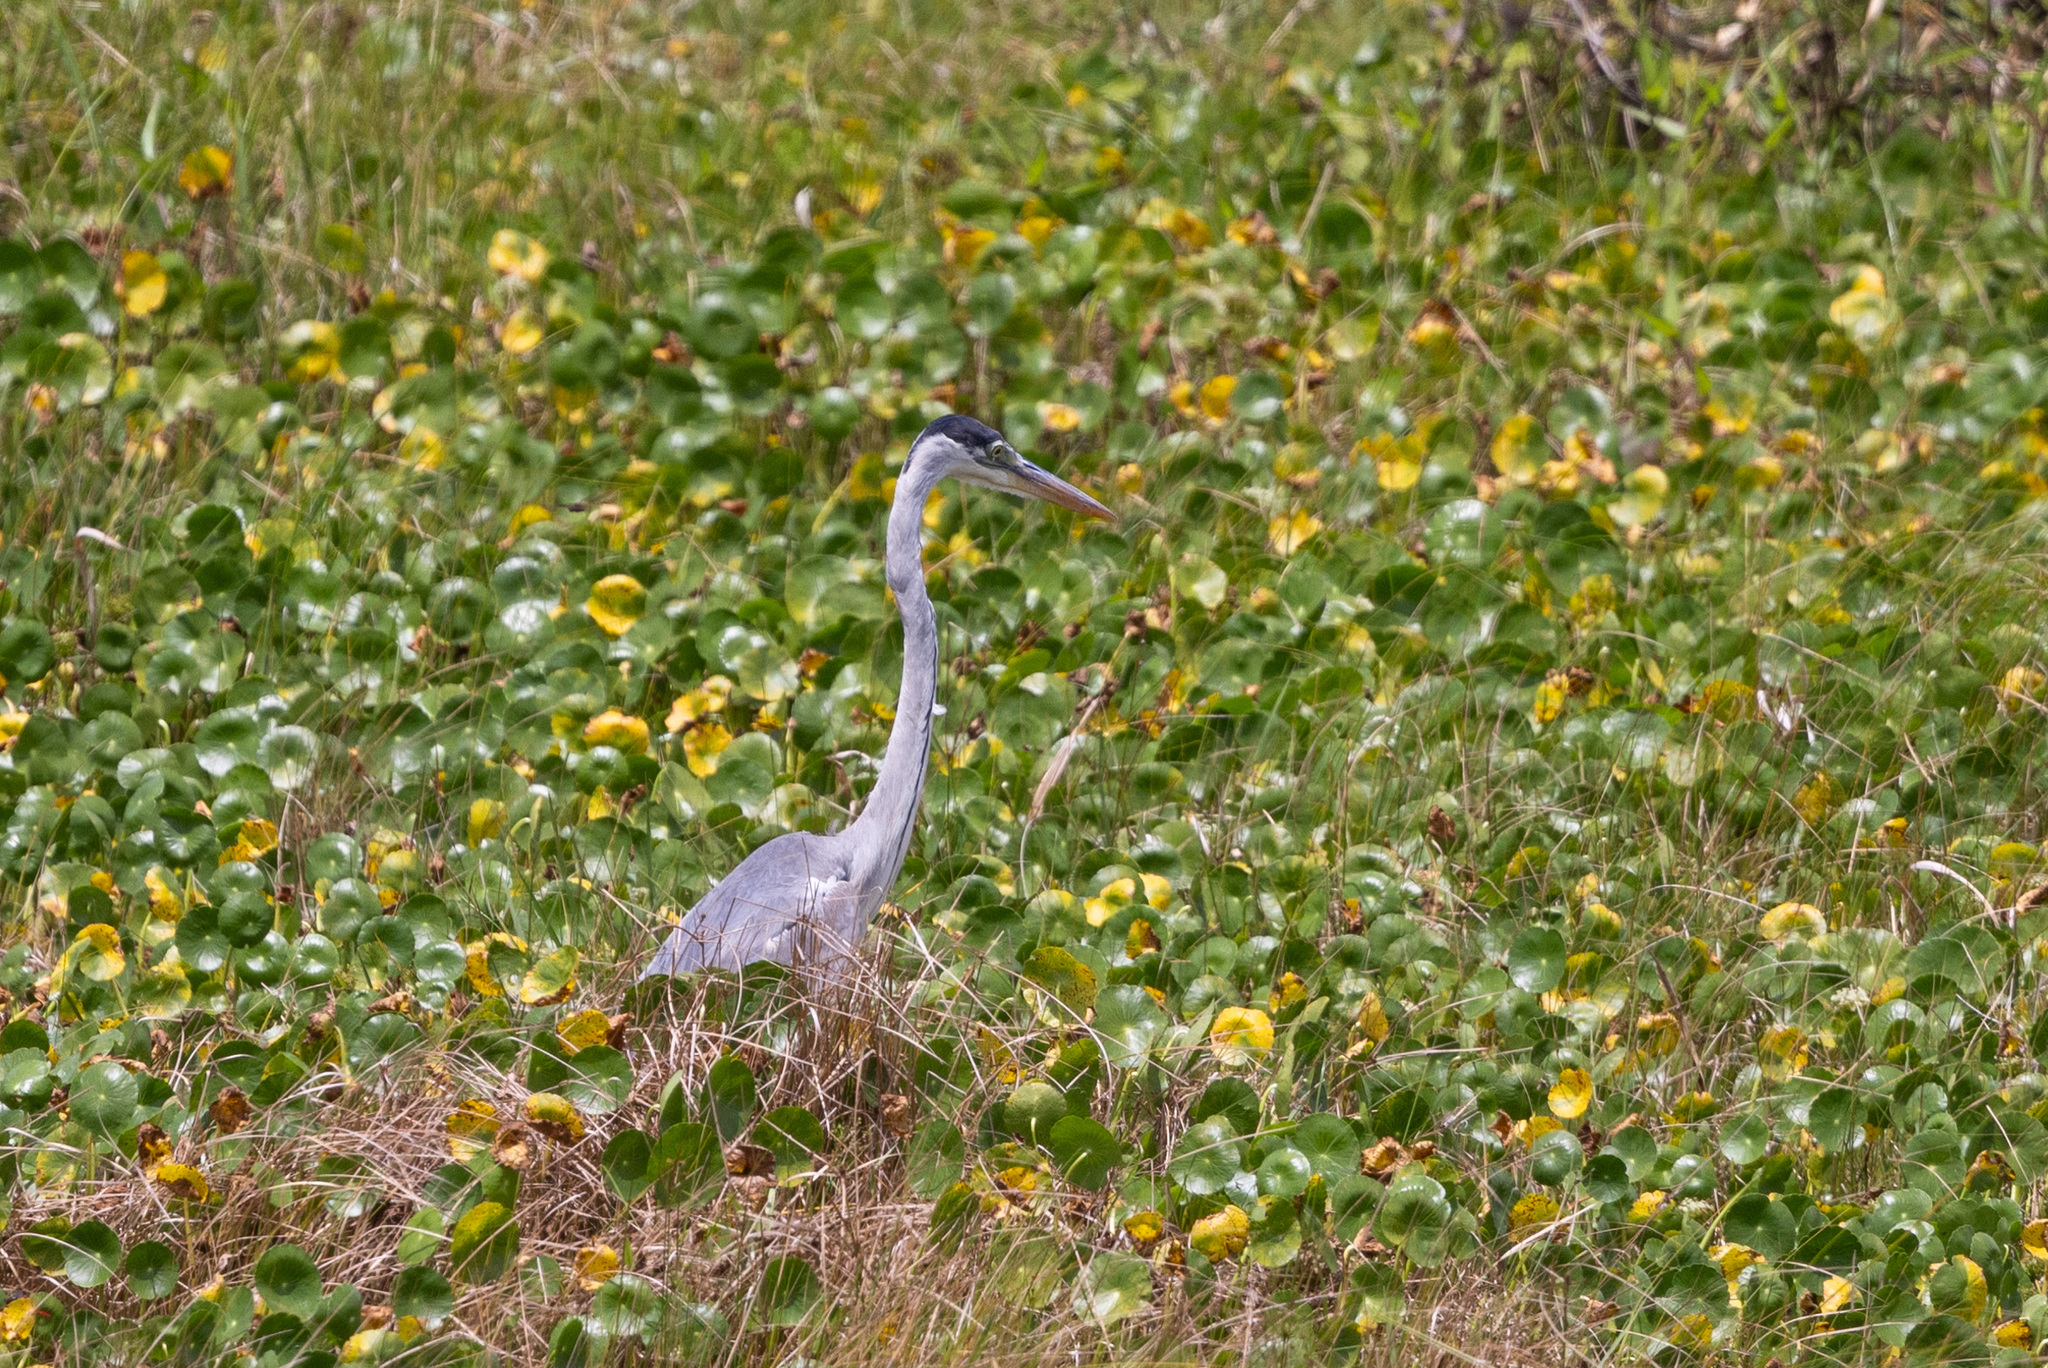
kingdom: Animalia
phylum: Chordata
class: Aves
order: Pelecaniformes
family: Ardeidae
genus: Ardea
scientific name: Ardea cocoi
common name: Cocoi heron
